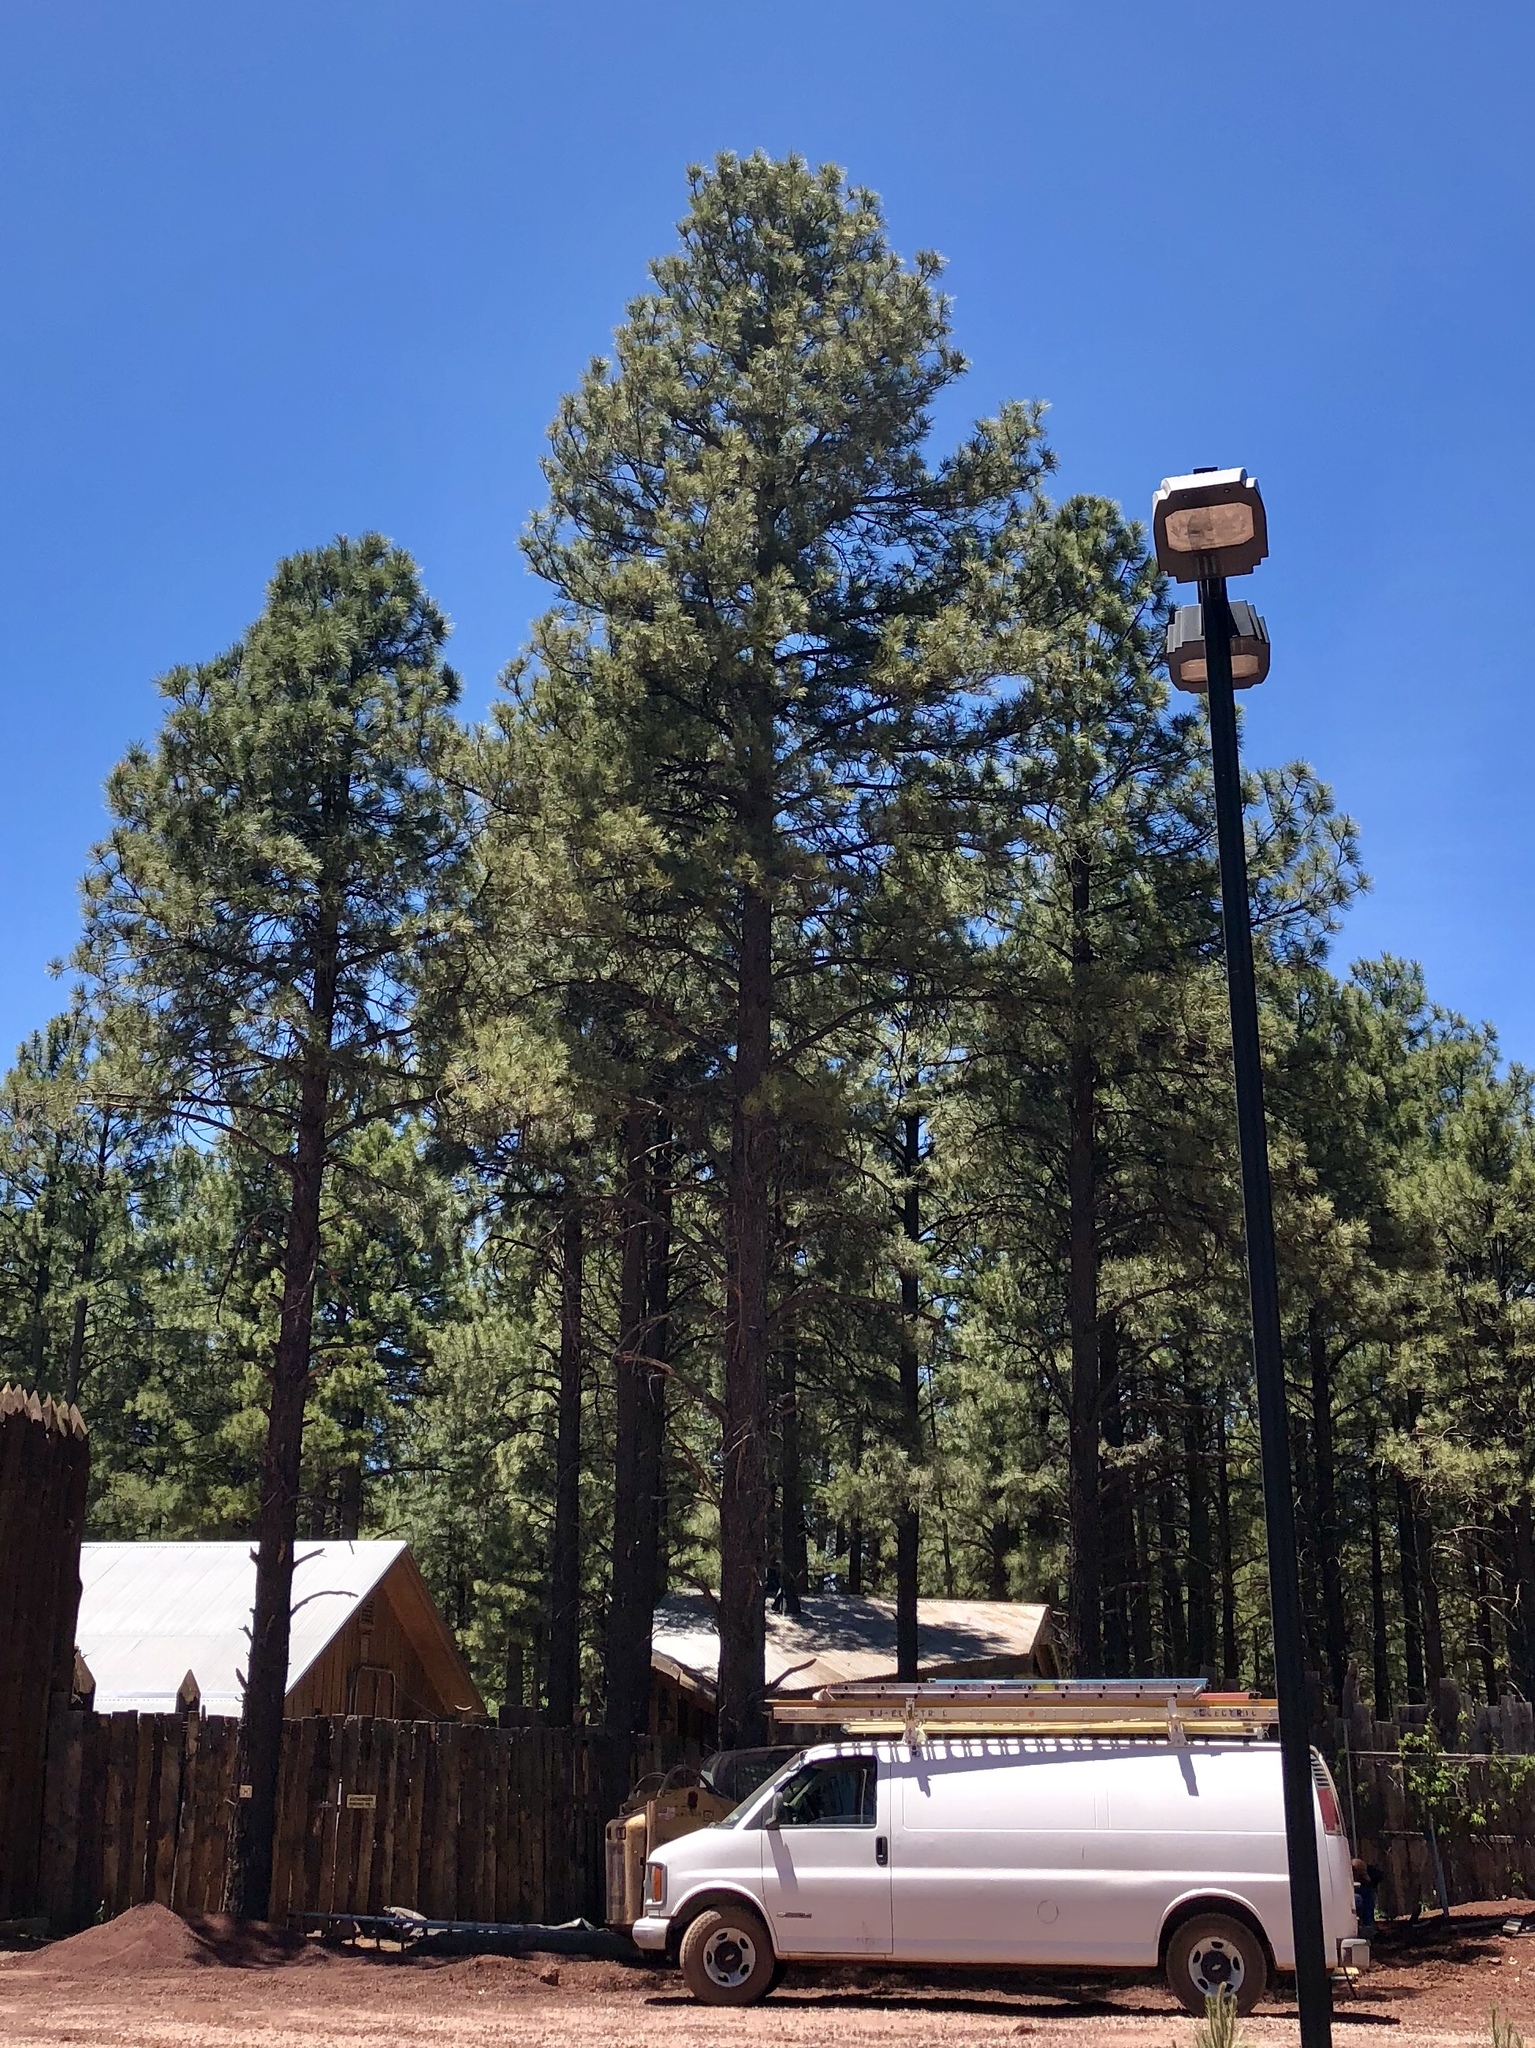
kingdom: Plantae
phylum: Tracheophyta
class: Pinopsida
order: Pinales
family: Pinaceae
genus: Pinus
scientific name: Pinus ponderosa
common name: Western yellow-pine
